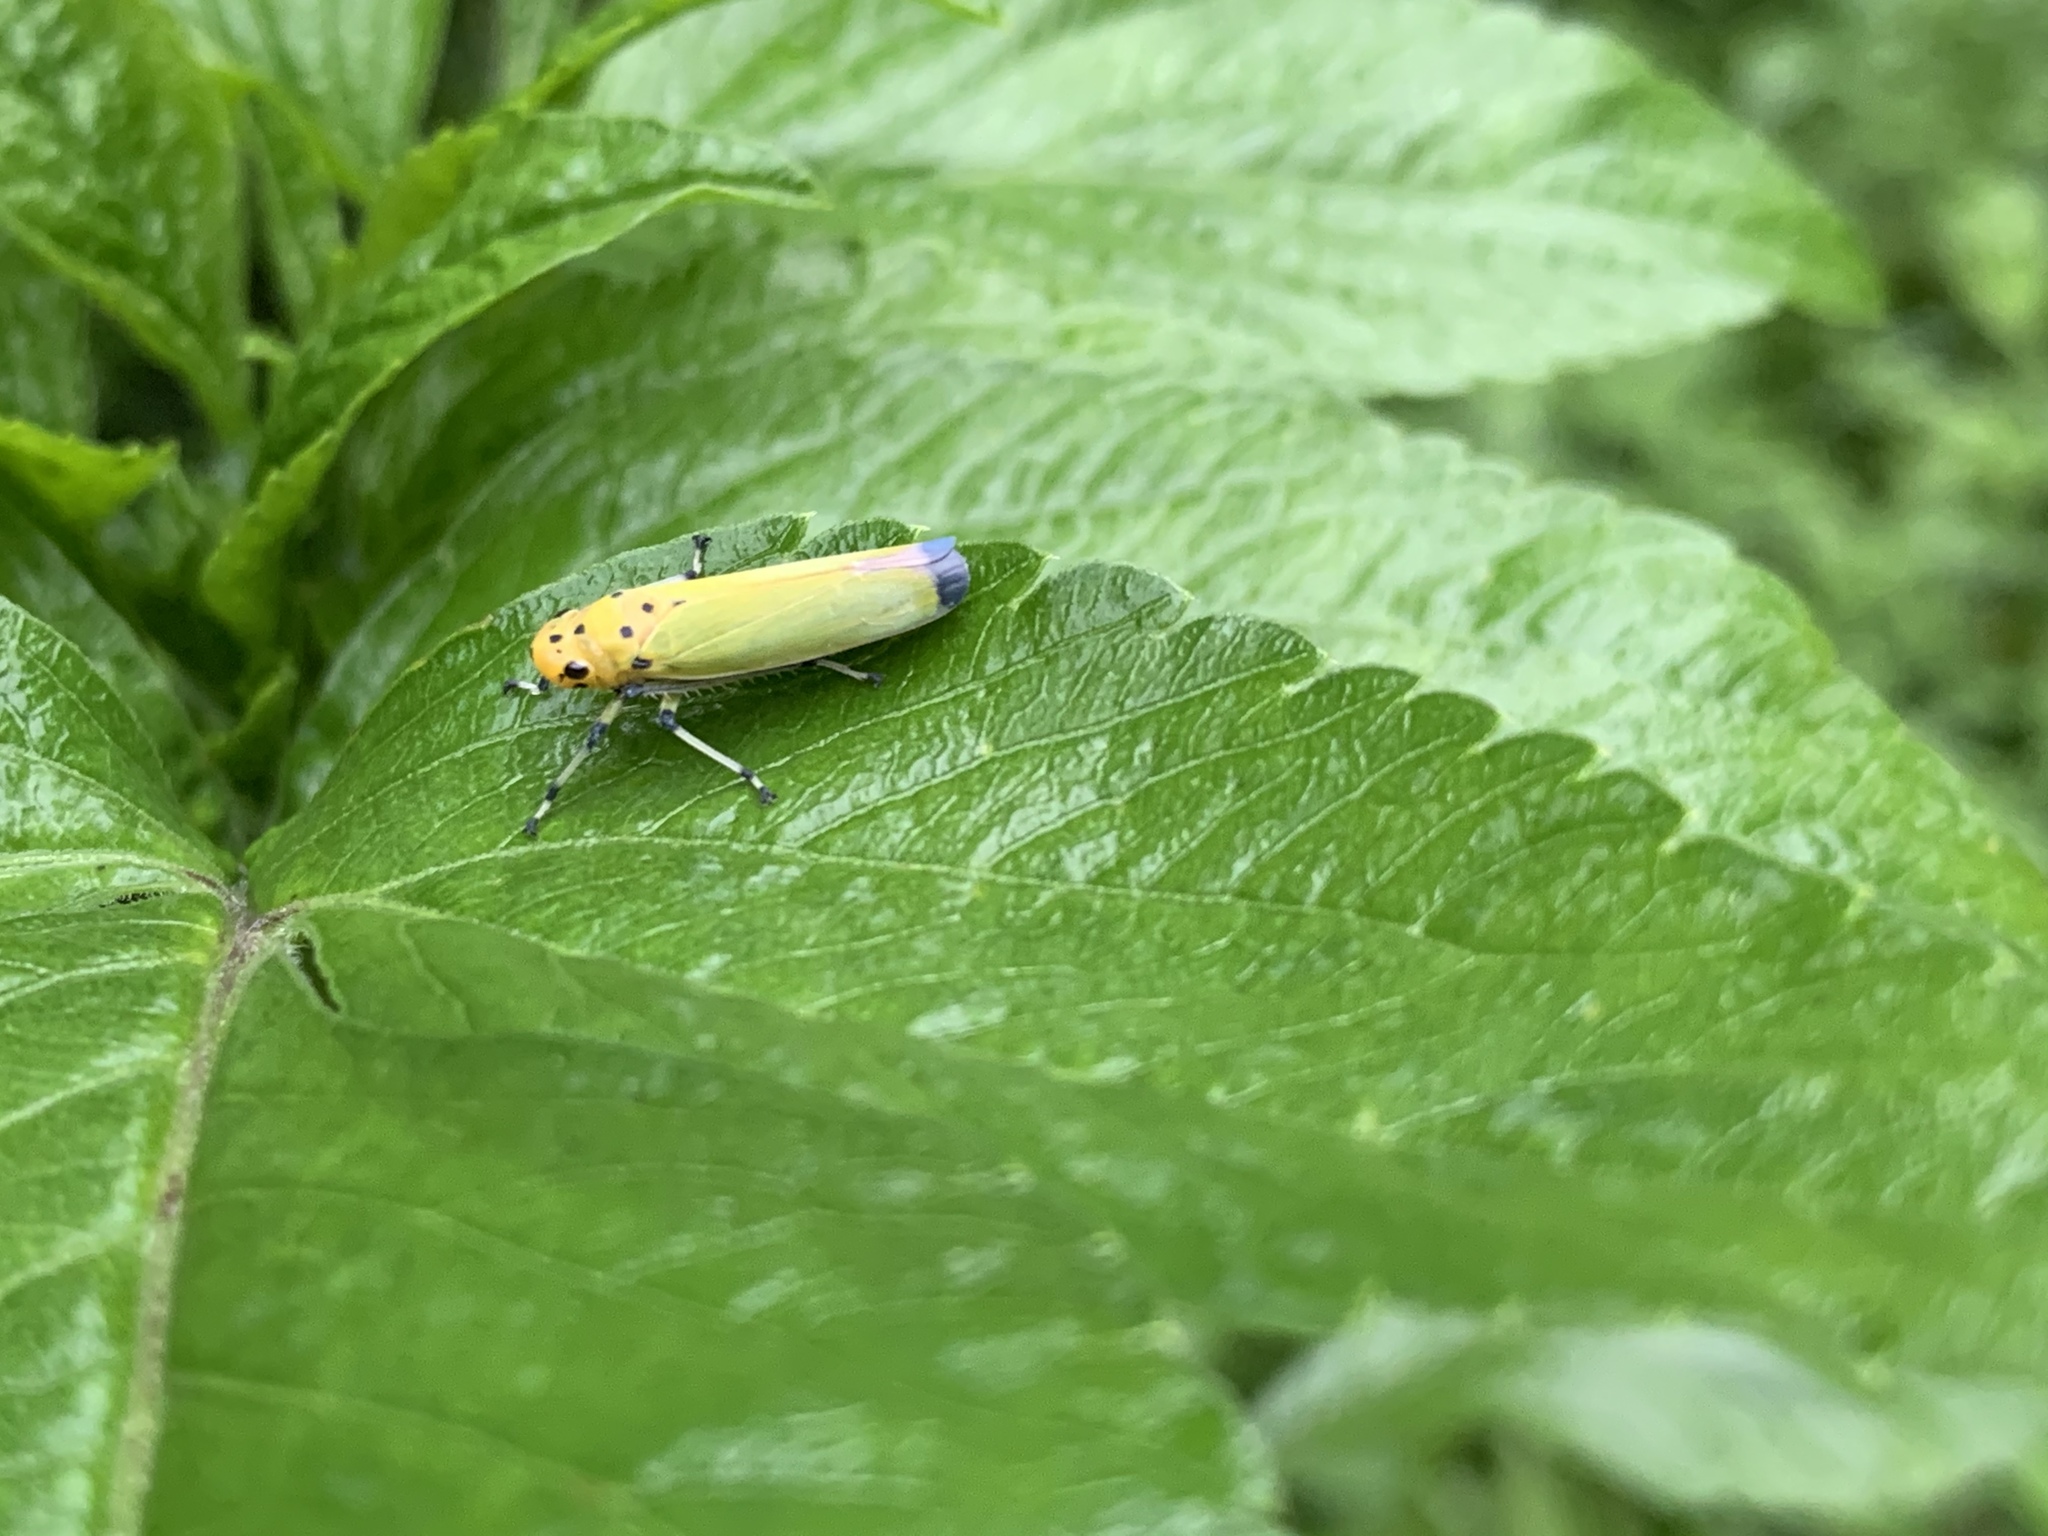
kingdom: Animalia
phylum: Arthropoda
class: Insecta
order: Hemiptera
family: Cicadellidae
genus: Bothrogonia
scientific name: Bothrogonia ferruginea
